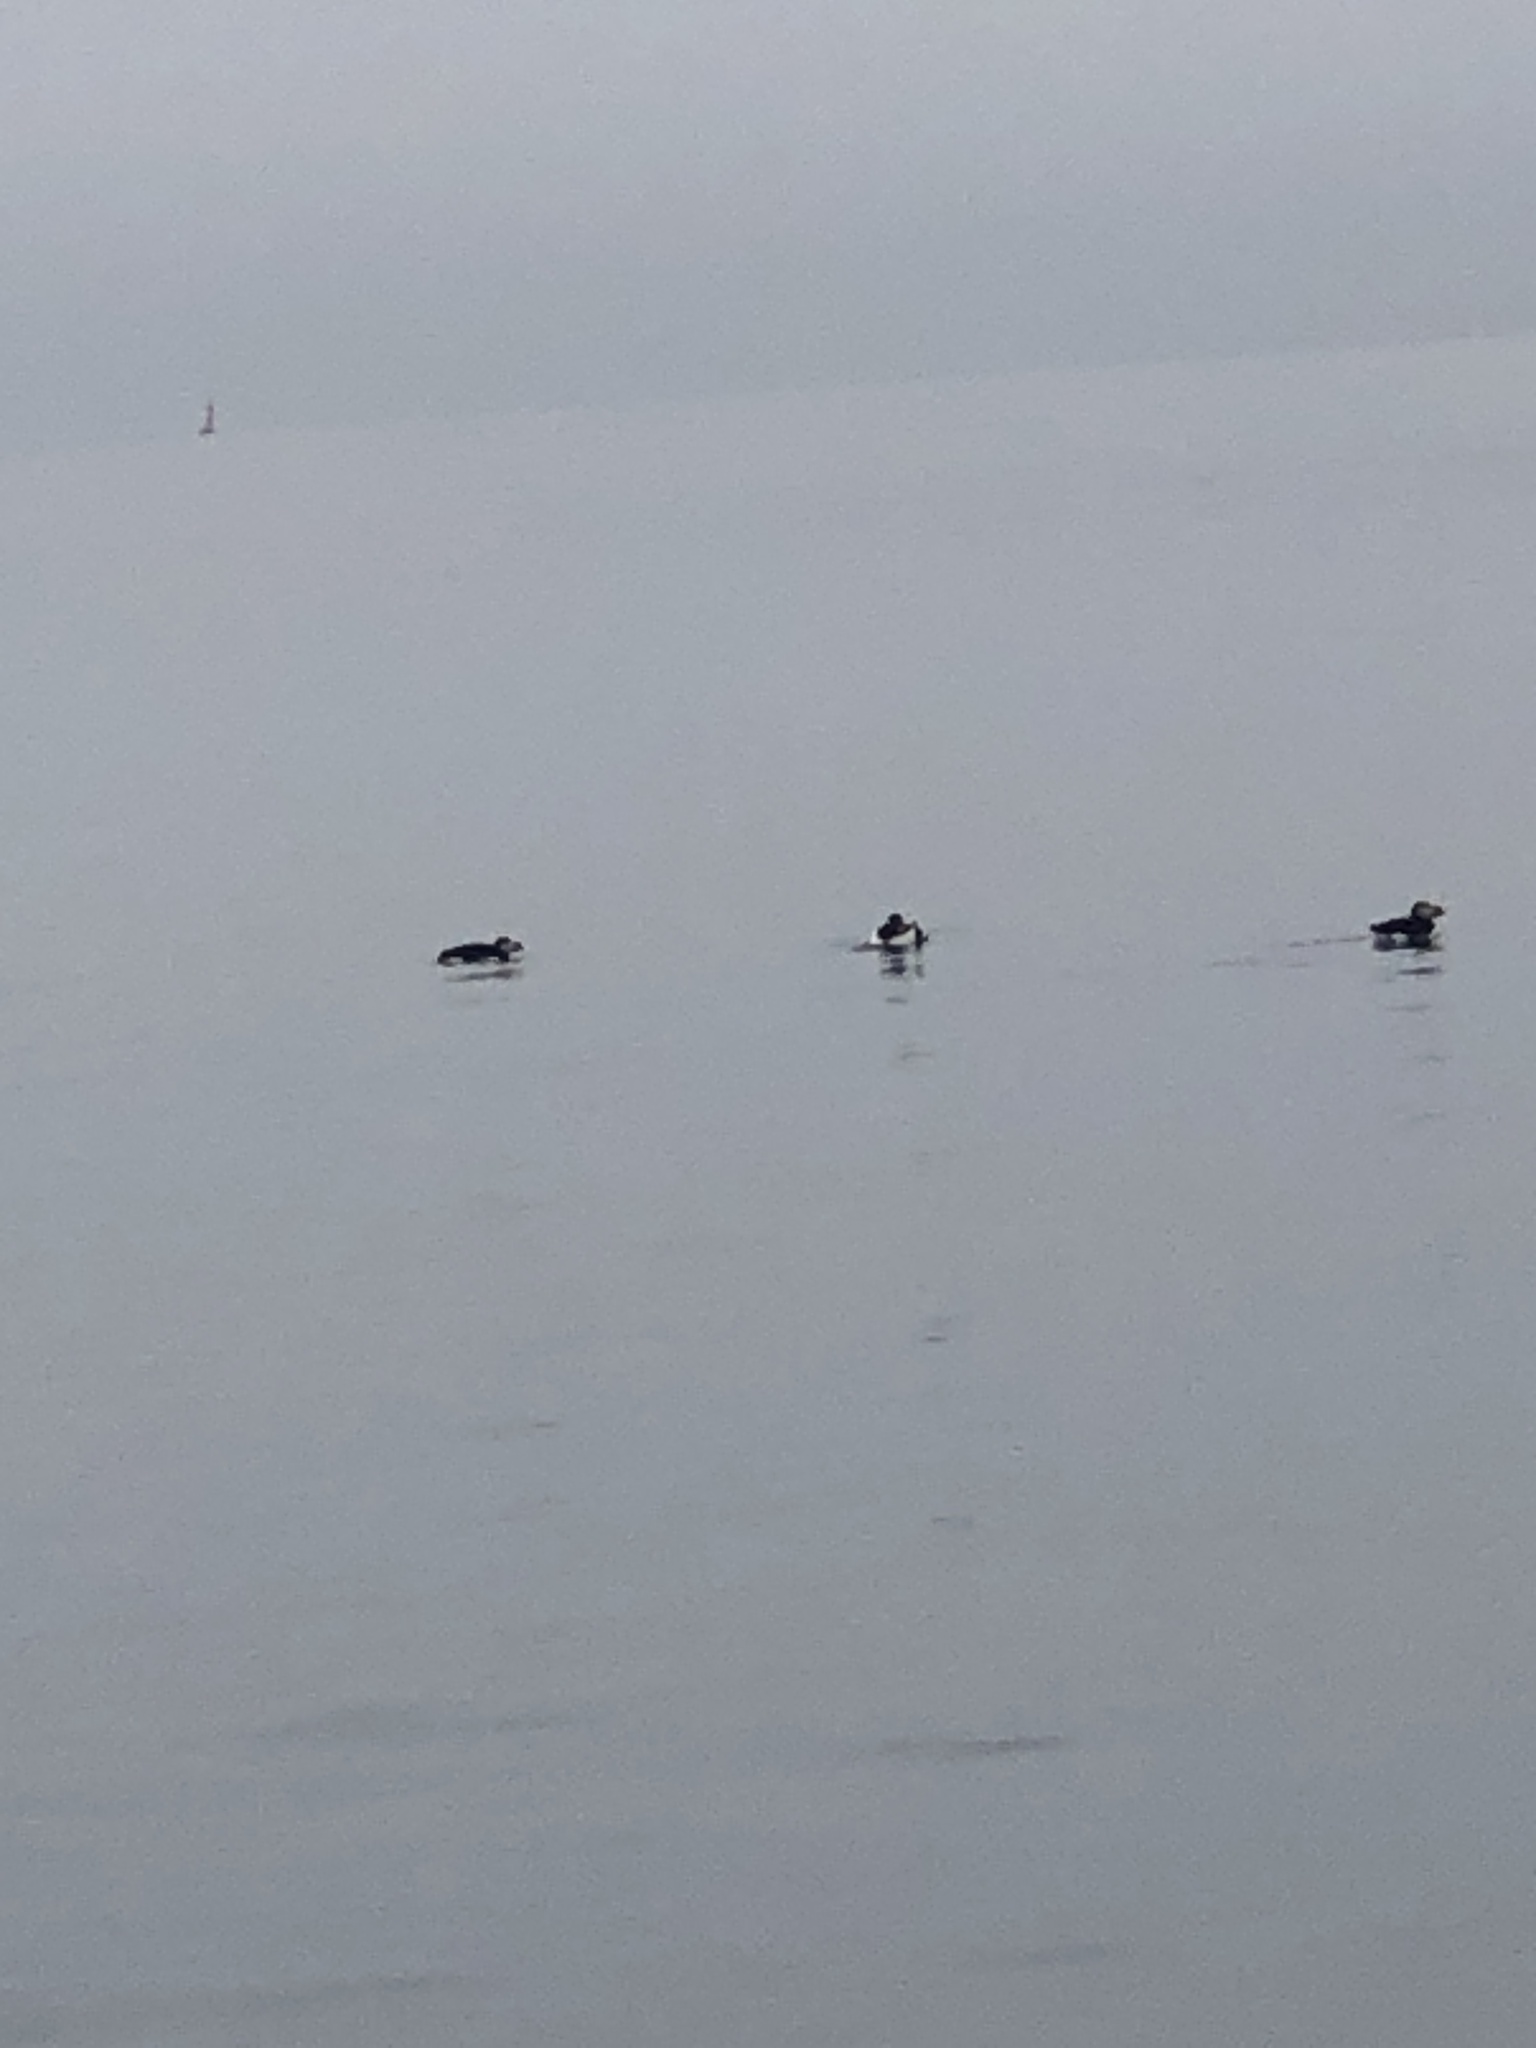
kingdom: Animalia
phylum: Chordata
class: Aves
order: Charadriiformes
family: Alcidae
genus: Fratercula
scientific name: Fratercula arctica
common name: Atlantic puffin
